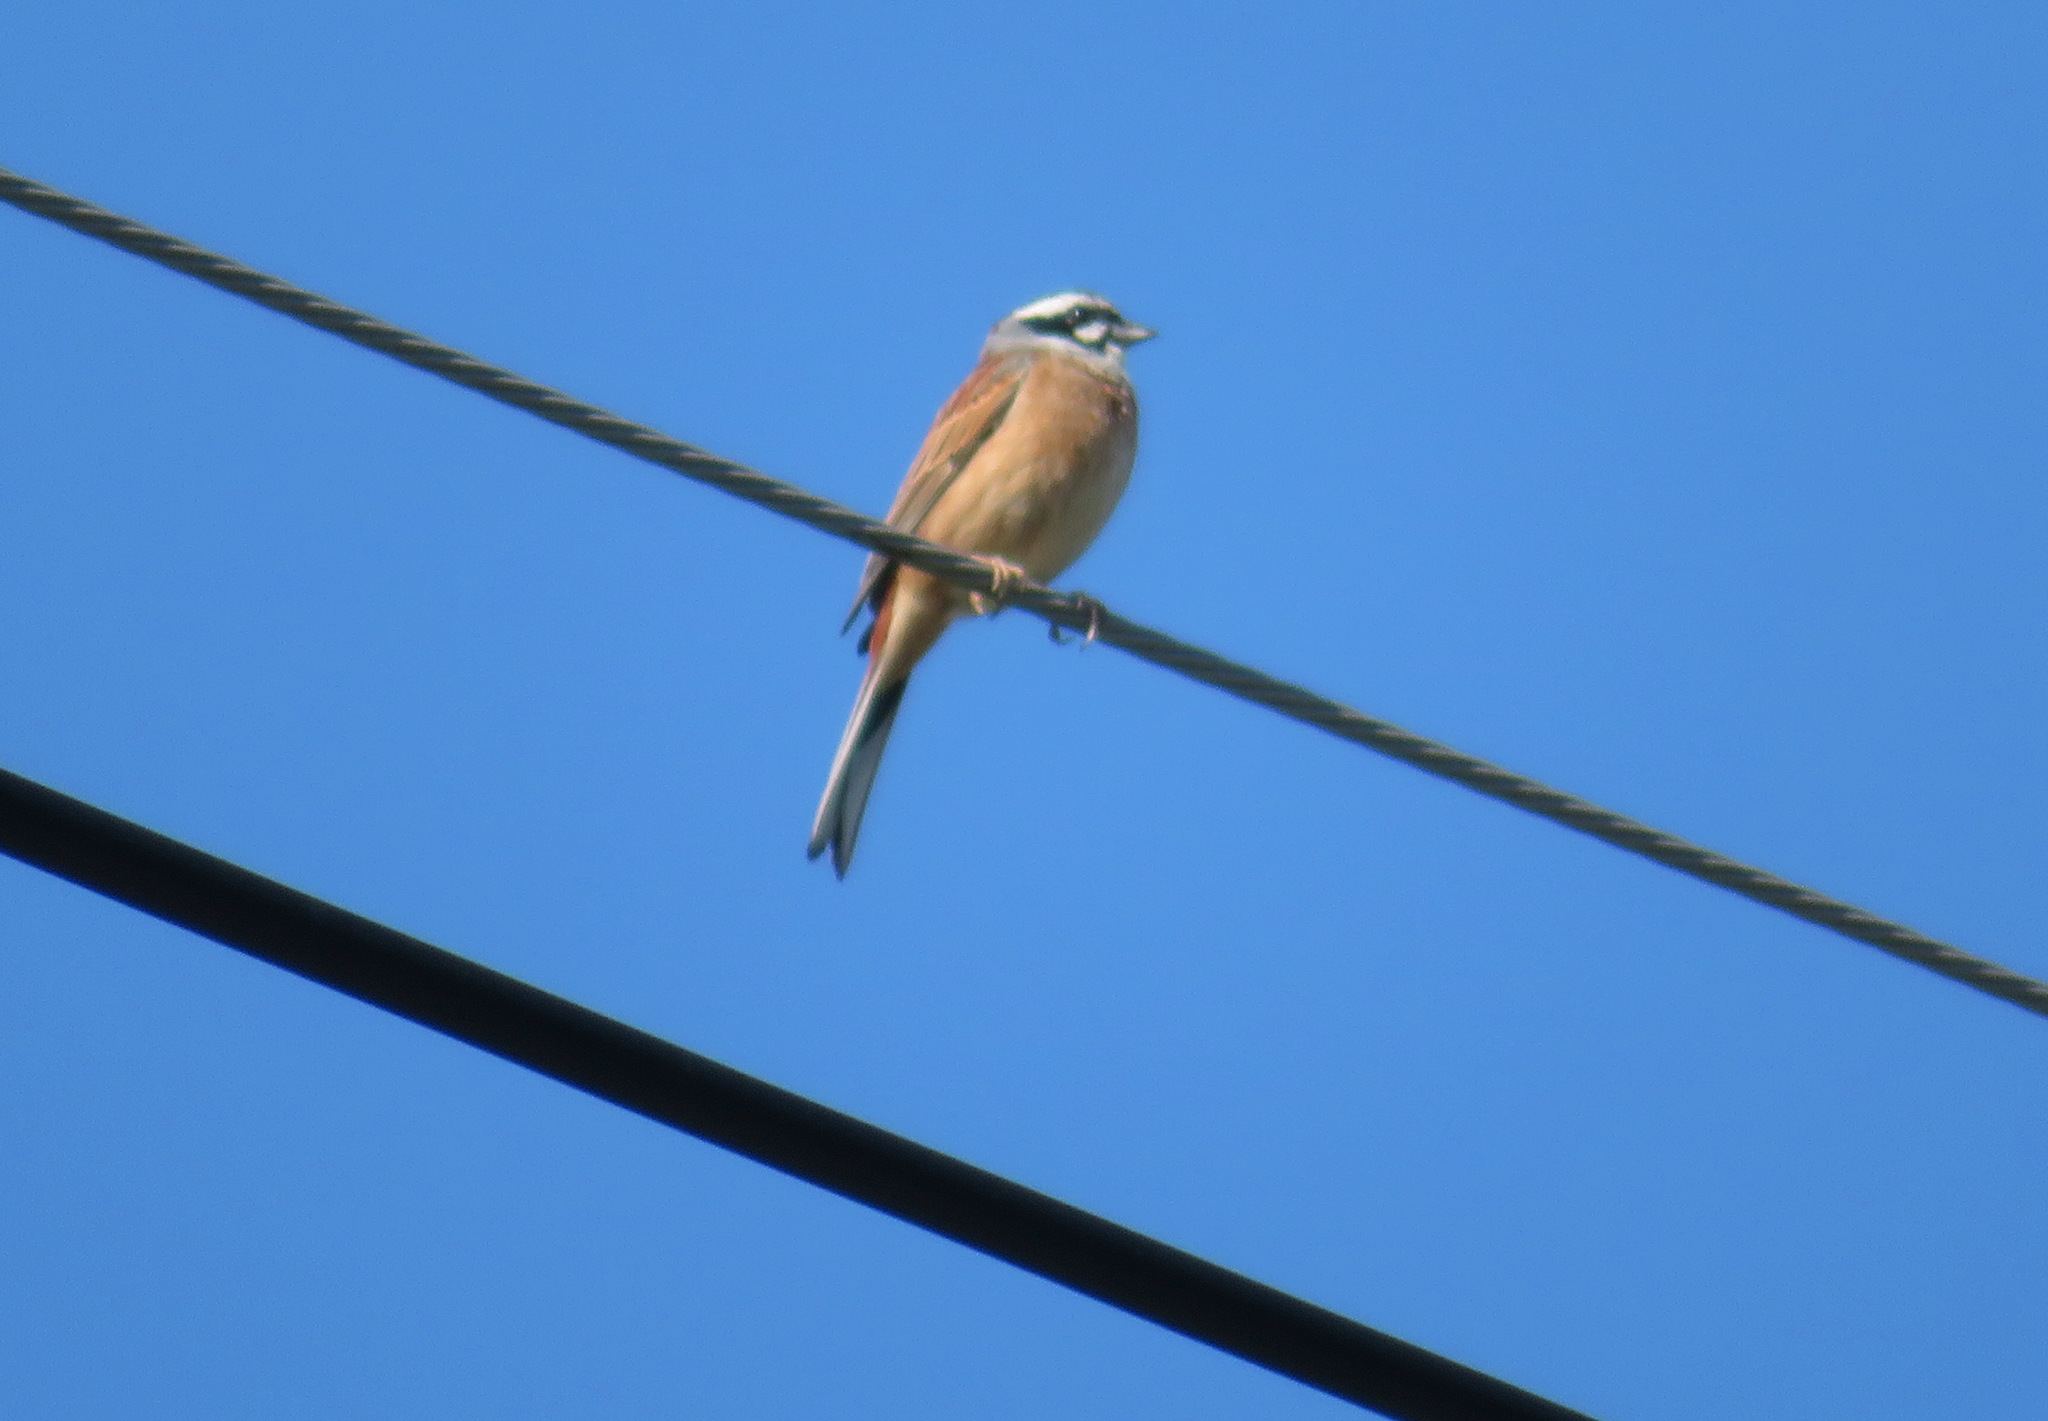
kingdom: Animalia
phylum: Chordata
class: Aves
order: Passeriformes
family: Emberizidae
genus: Emberiza
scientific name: Emberiza cioides
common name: Meadow bunting
